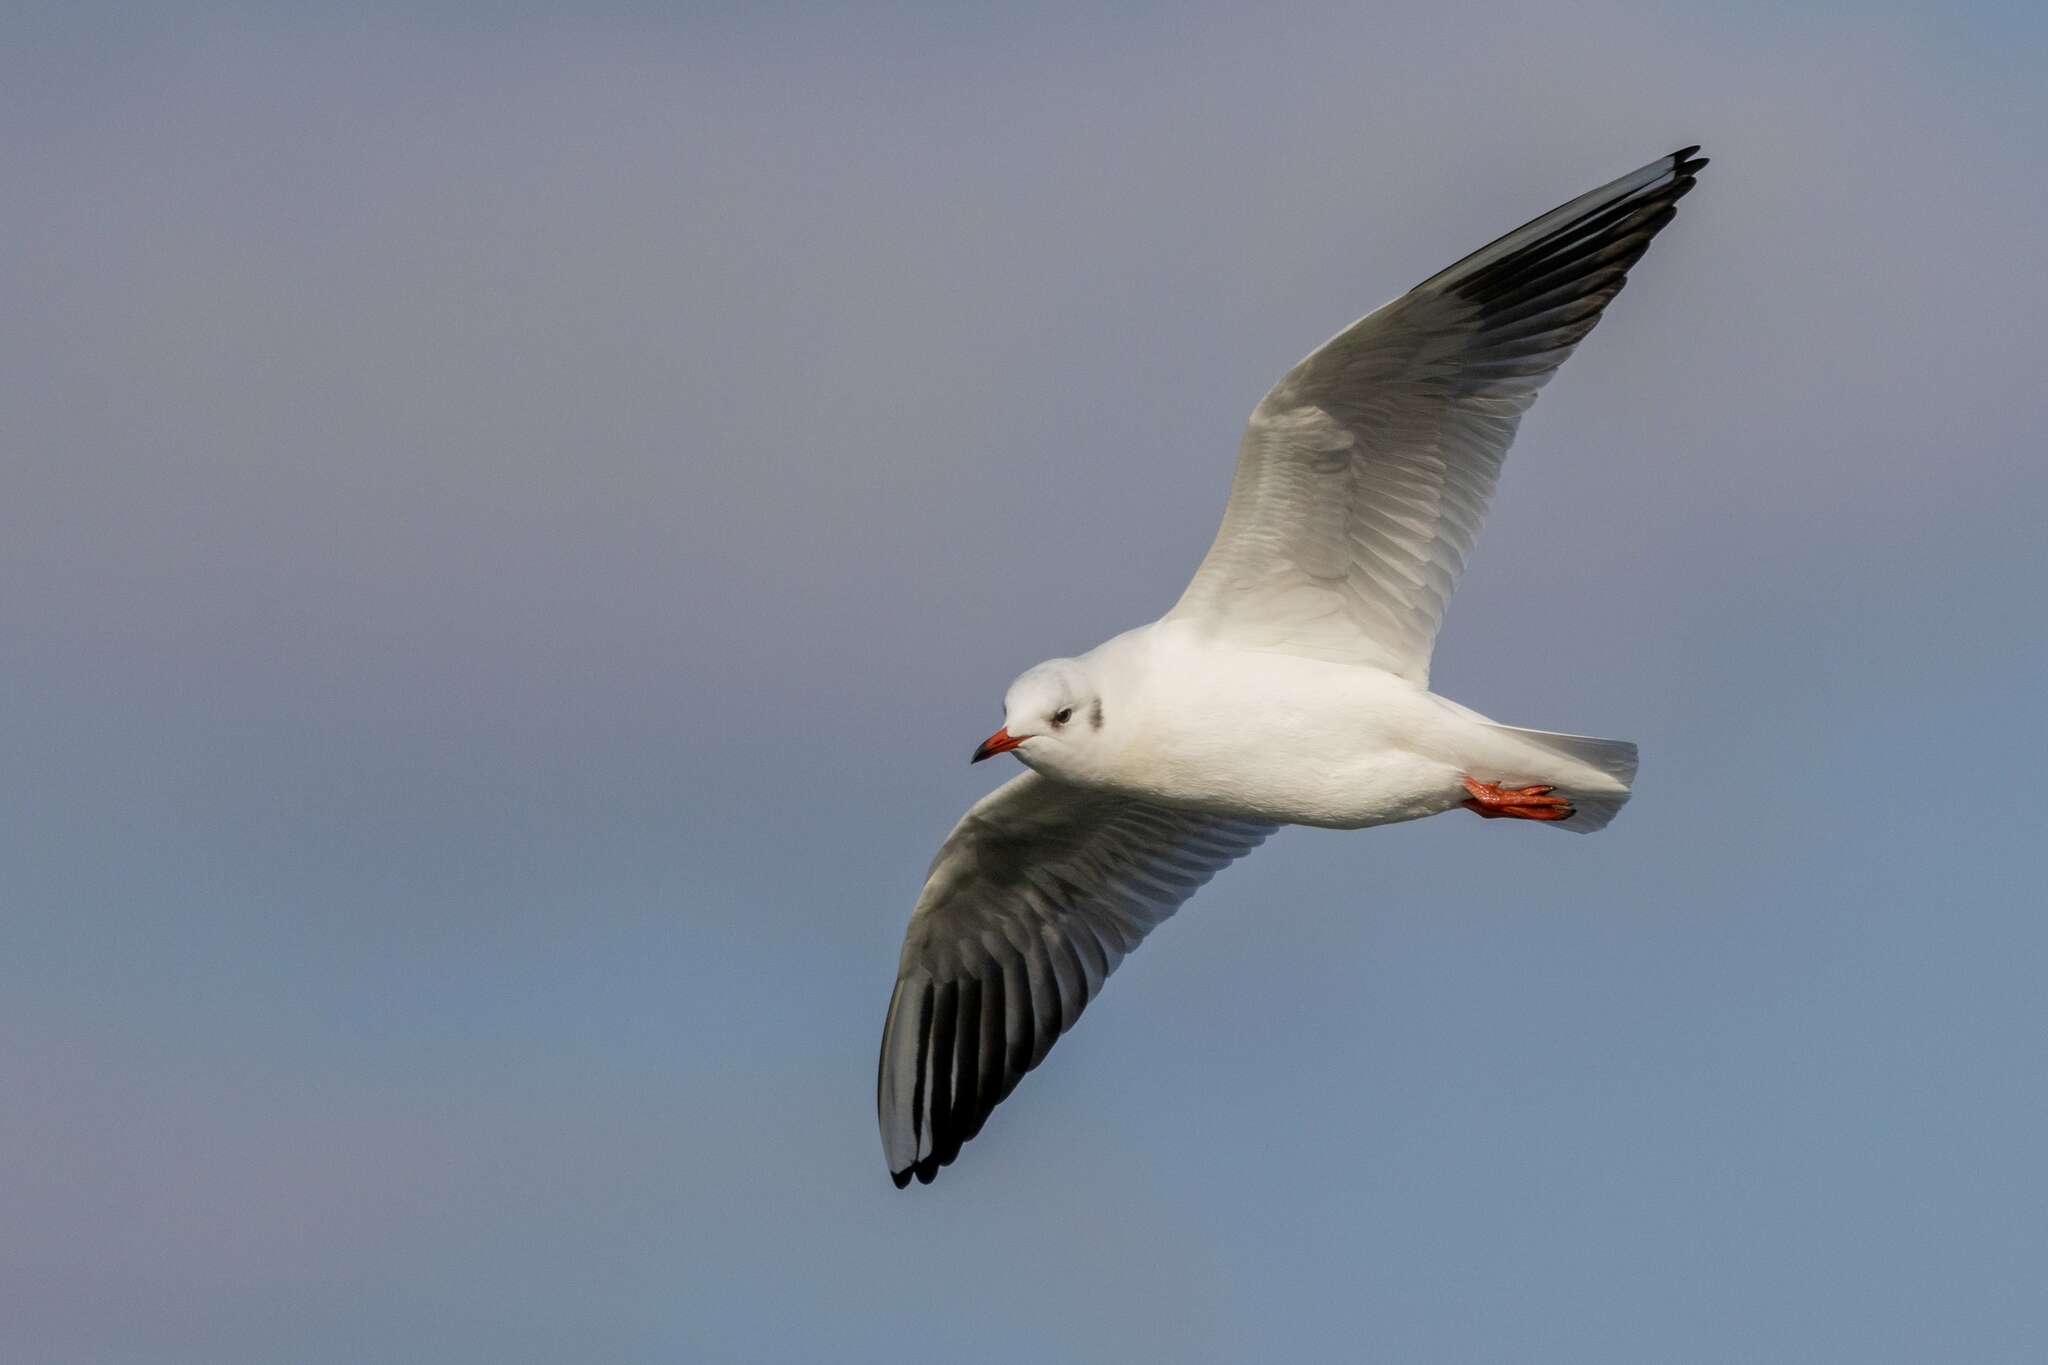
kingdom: Animalia
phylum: Chordata
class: Aves
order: Charadriiformes
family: Laridae
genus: Chroicocephalus
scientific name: Chroicocephalus ridibundus
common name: Black-headed gull
